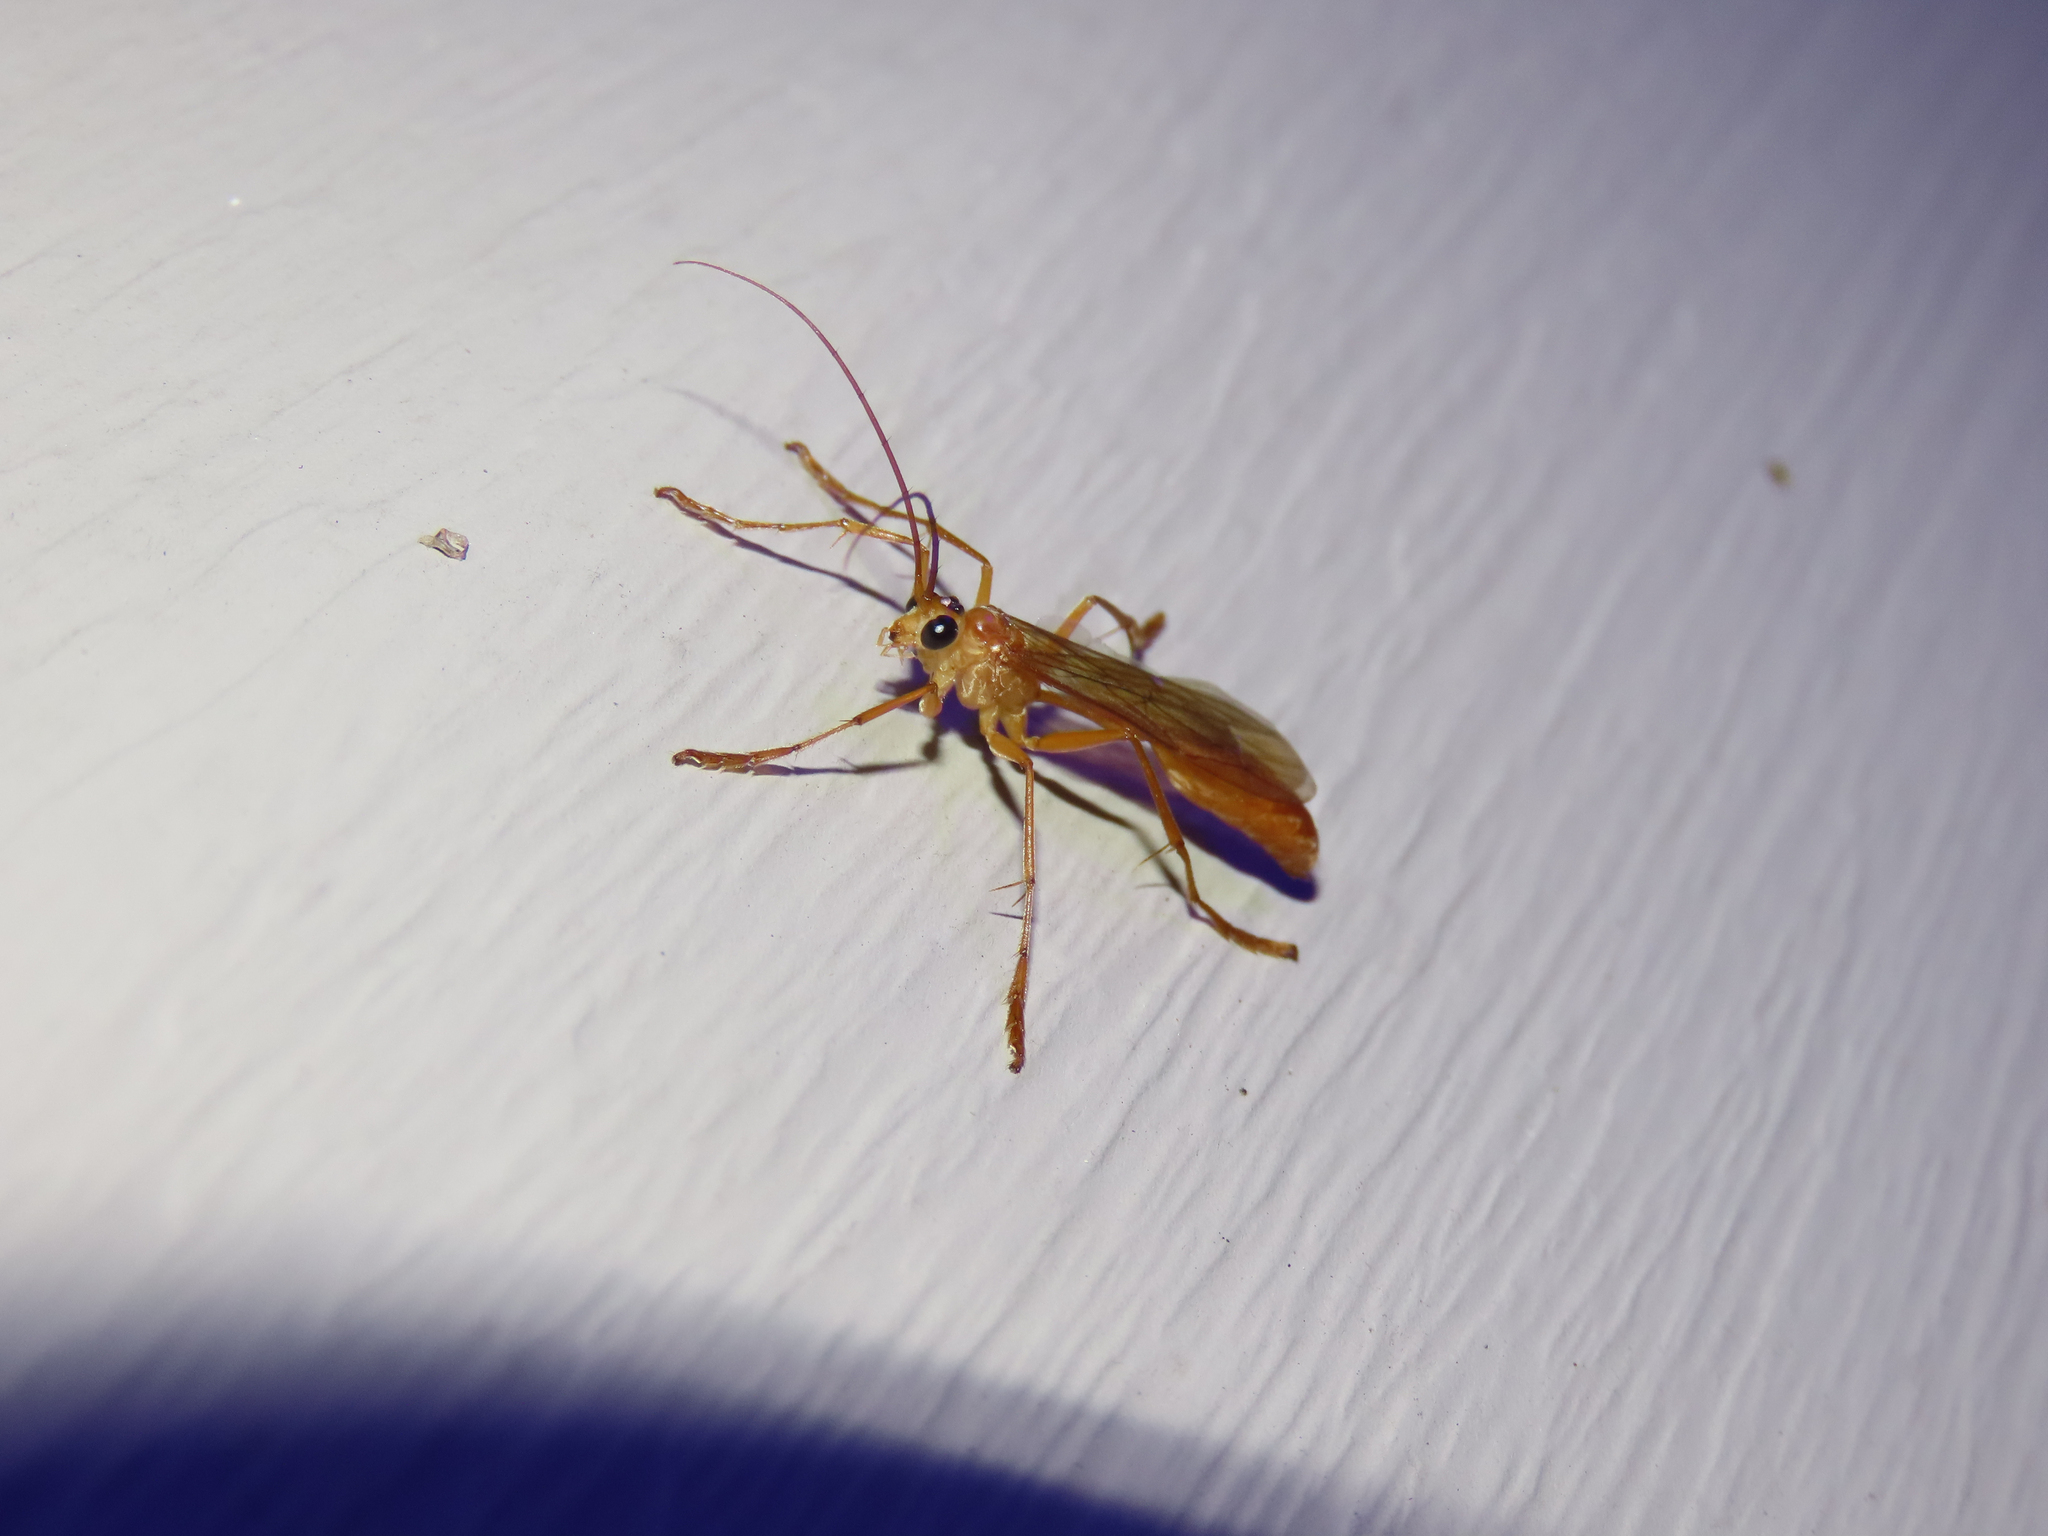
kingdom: Animalia
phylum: Arthropoda
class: Insecta
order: Hymenoptera
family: Rhopalosomatidae
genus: Rhopalosoma
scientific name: Rhopalosoma nearcticum
